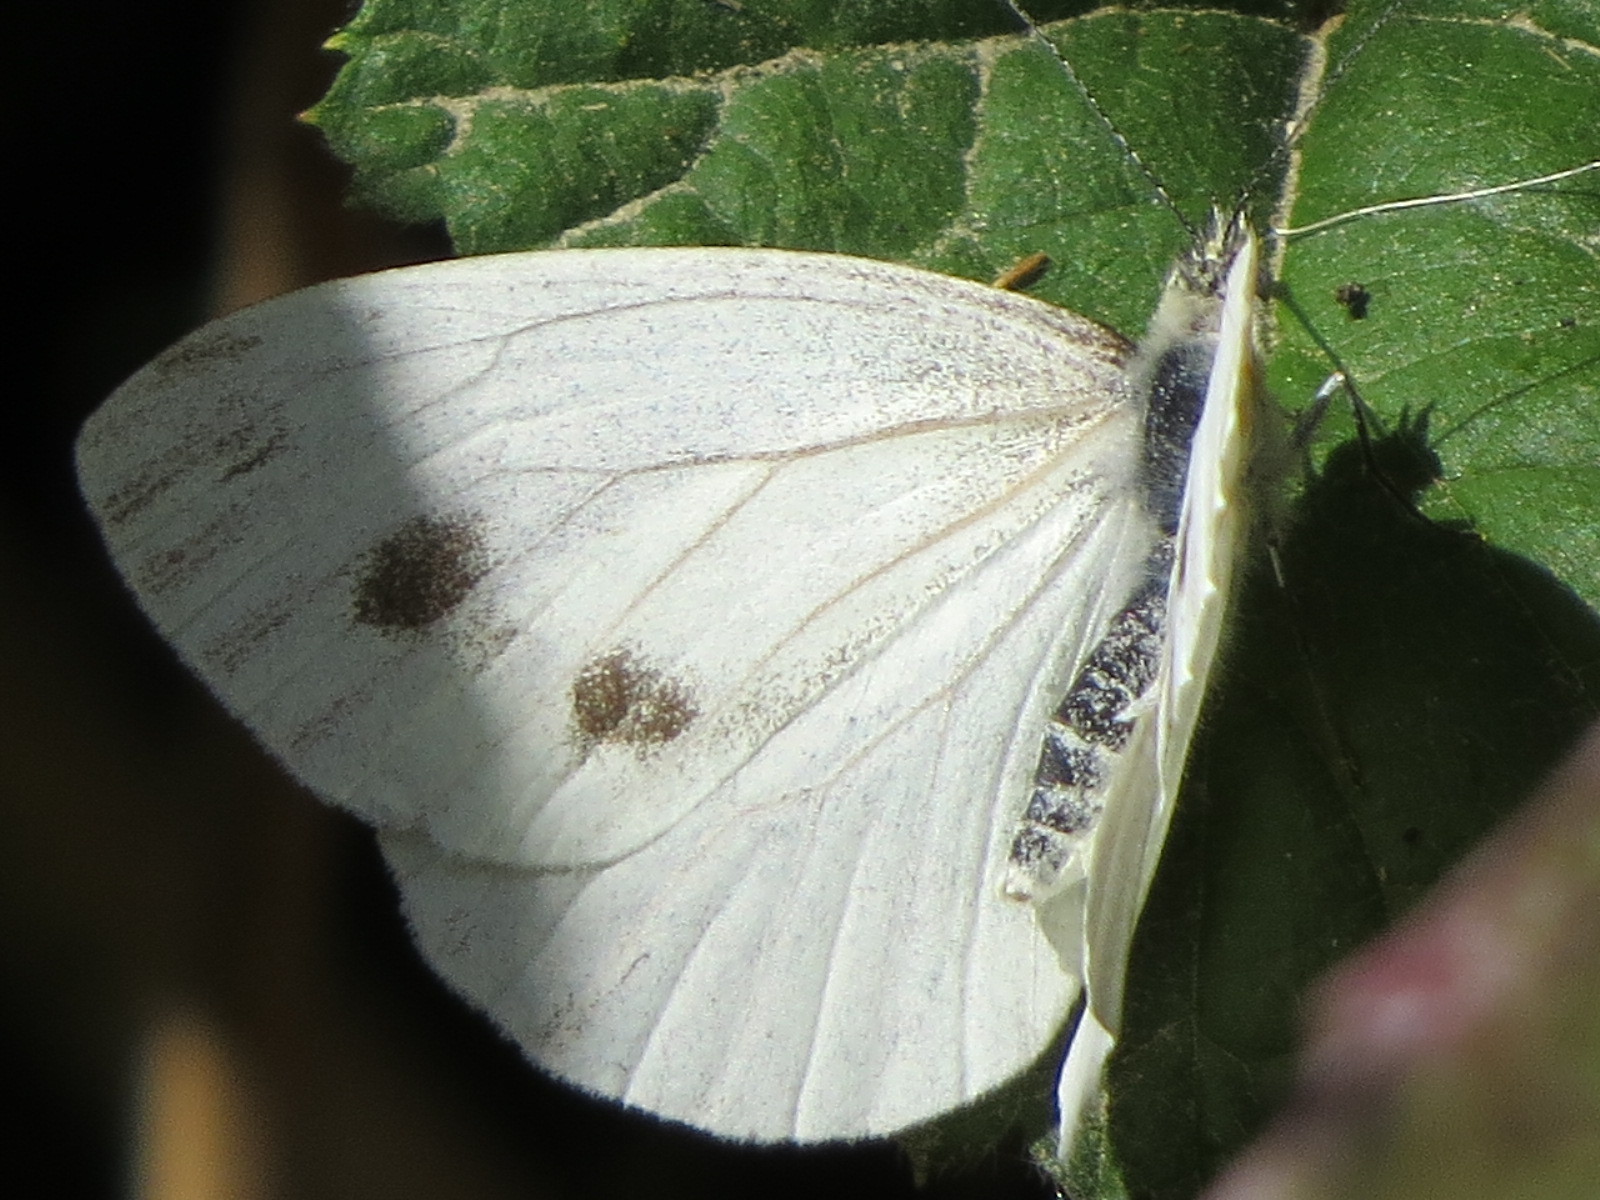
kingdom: Animalia
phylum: Arthropoda
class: Insecta
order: Lepidoptera
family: Pieridae
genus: Pieris
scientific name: Pieris rapae
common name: Small white
